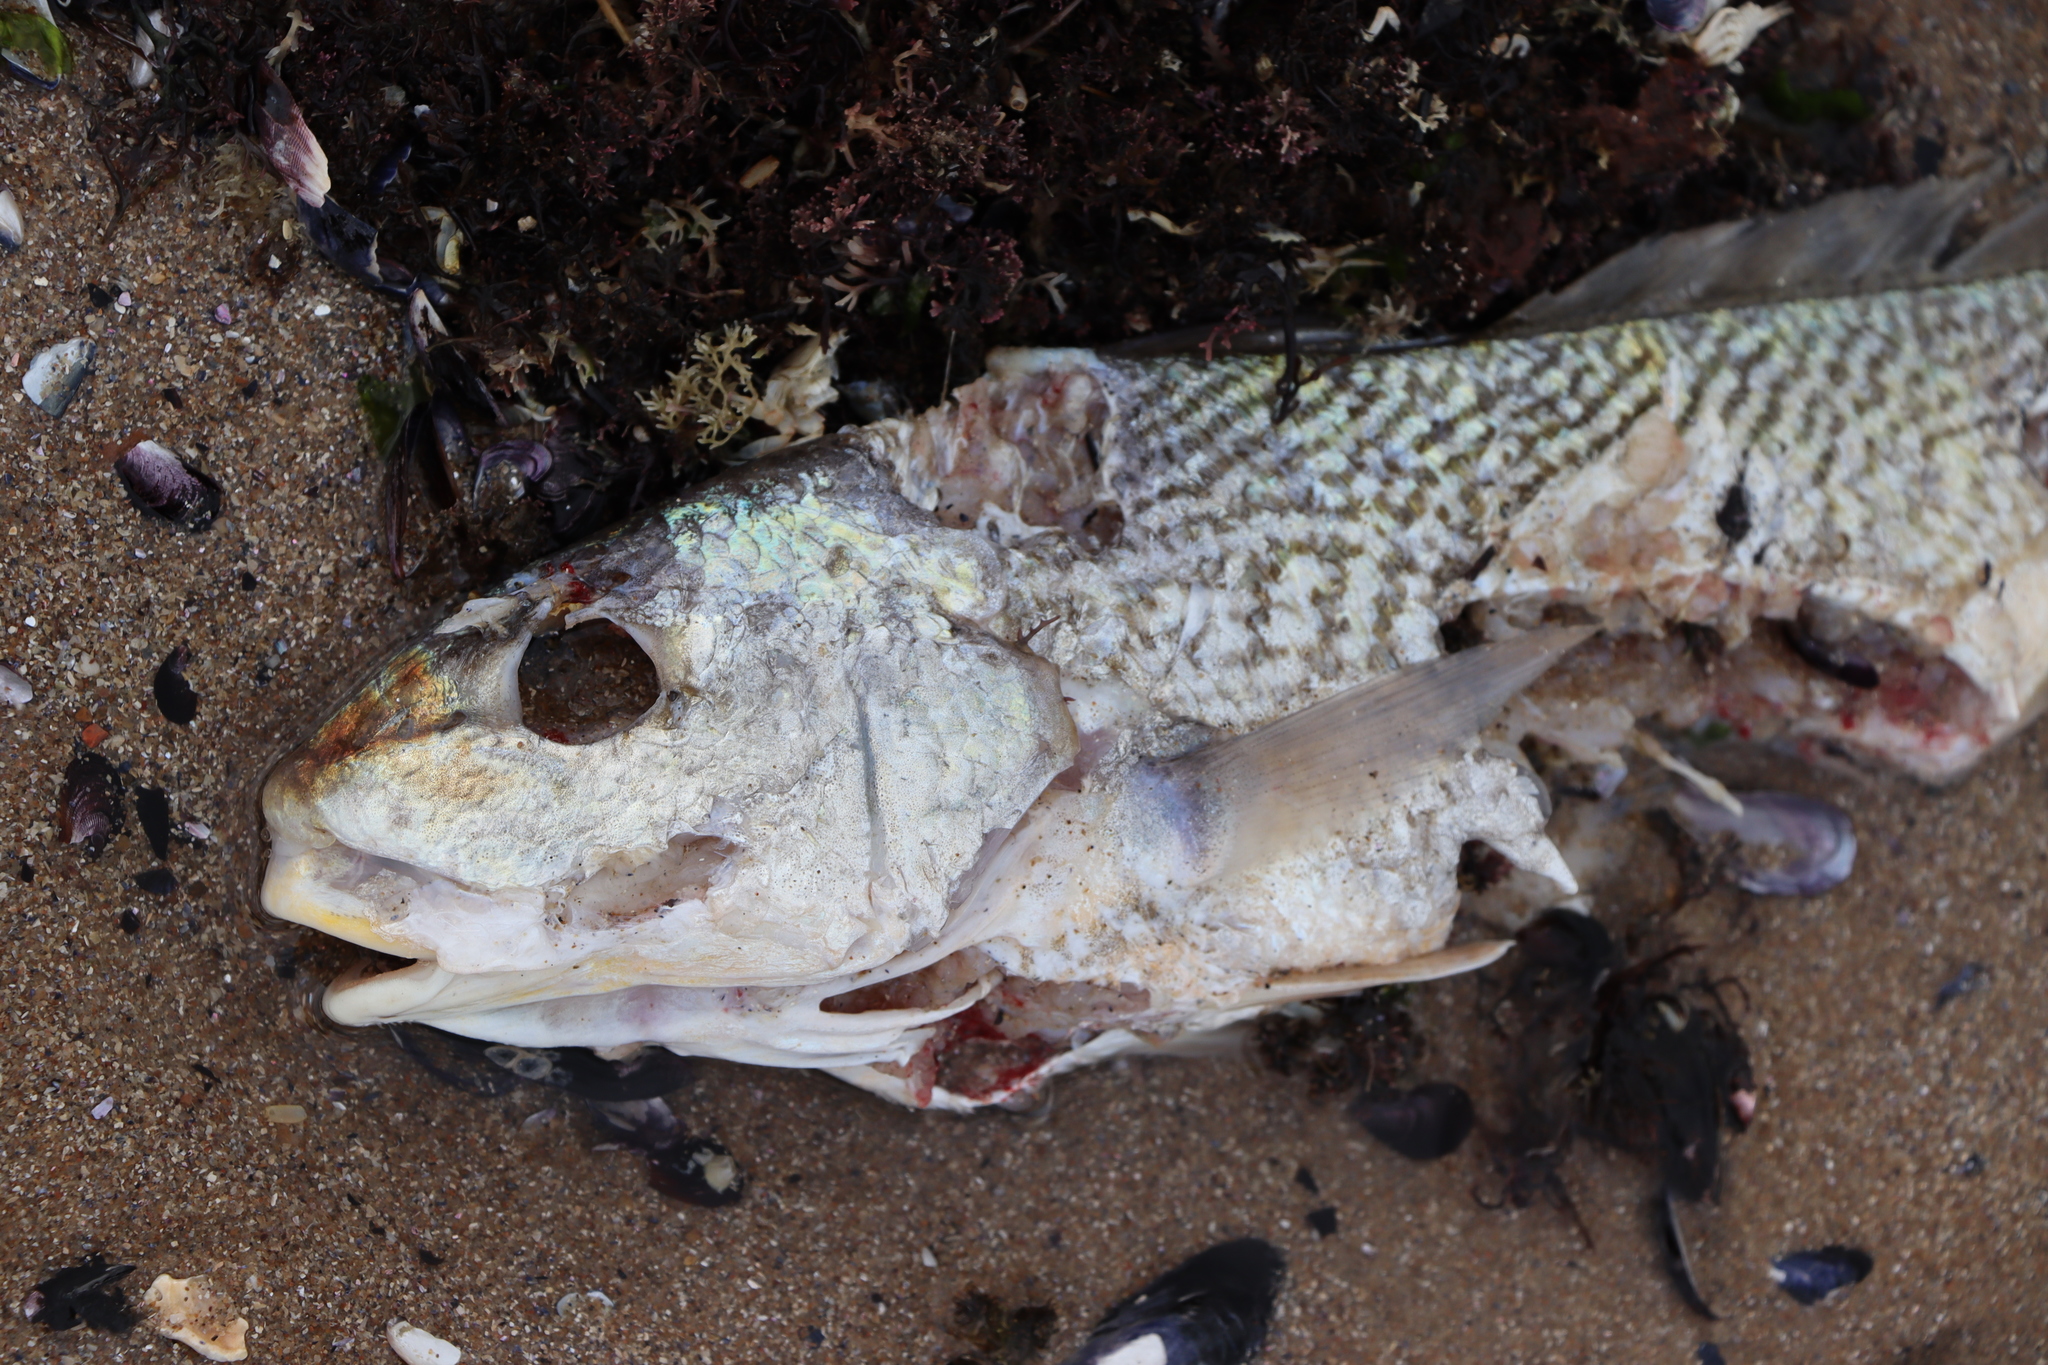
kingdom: Animalia
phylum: Chordata
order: Perciformes
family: Sciaenidae
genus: Micropogonias
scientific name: Micropogonias furnieri
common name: Whitemouth croaker
